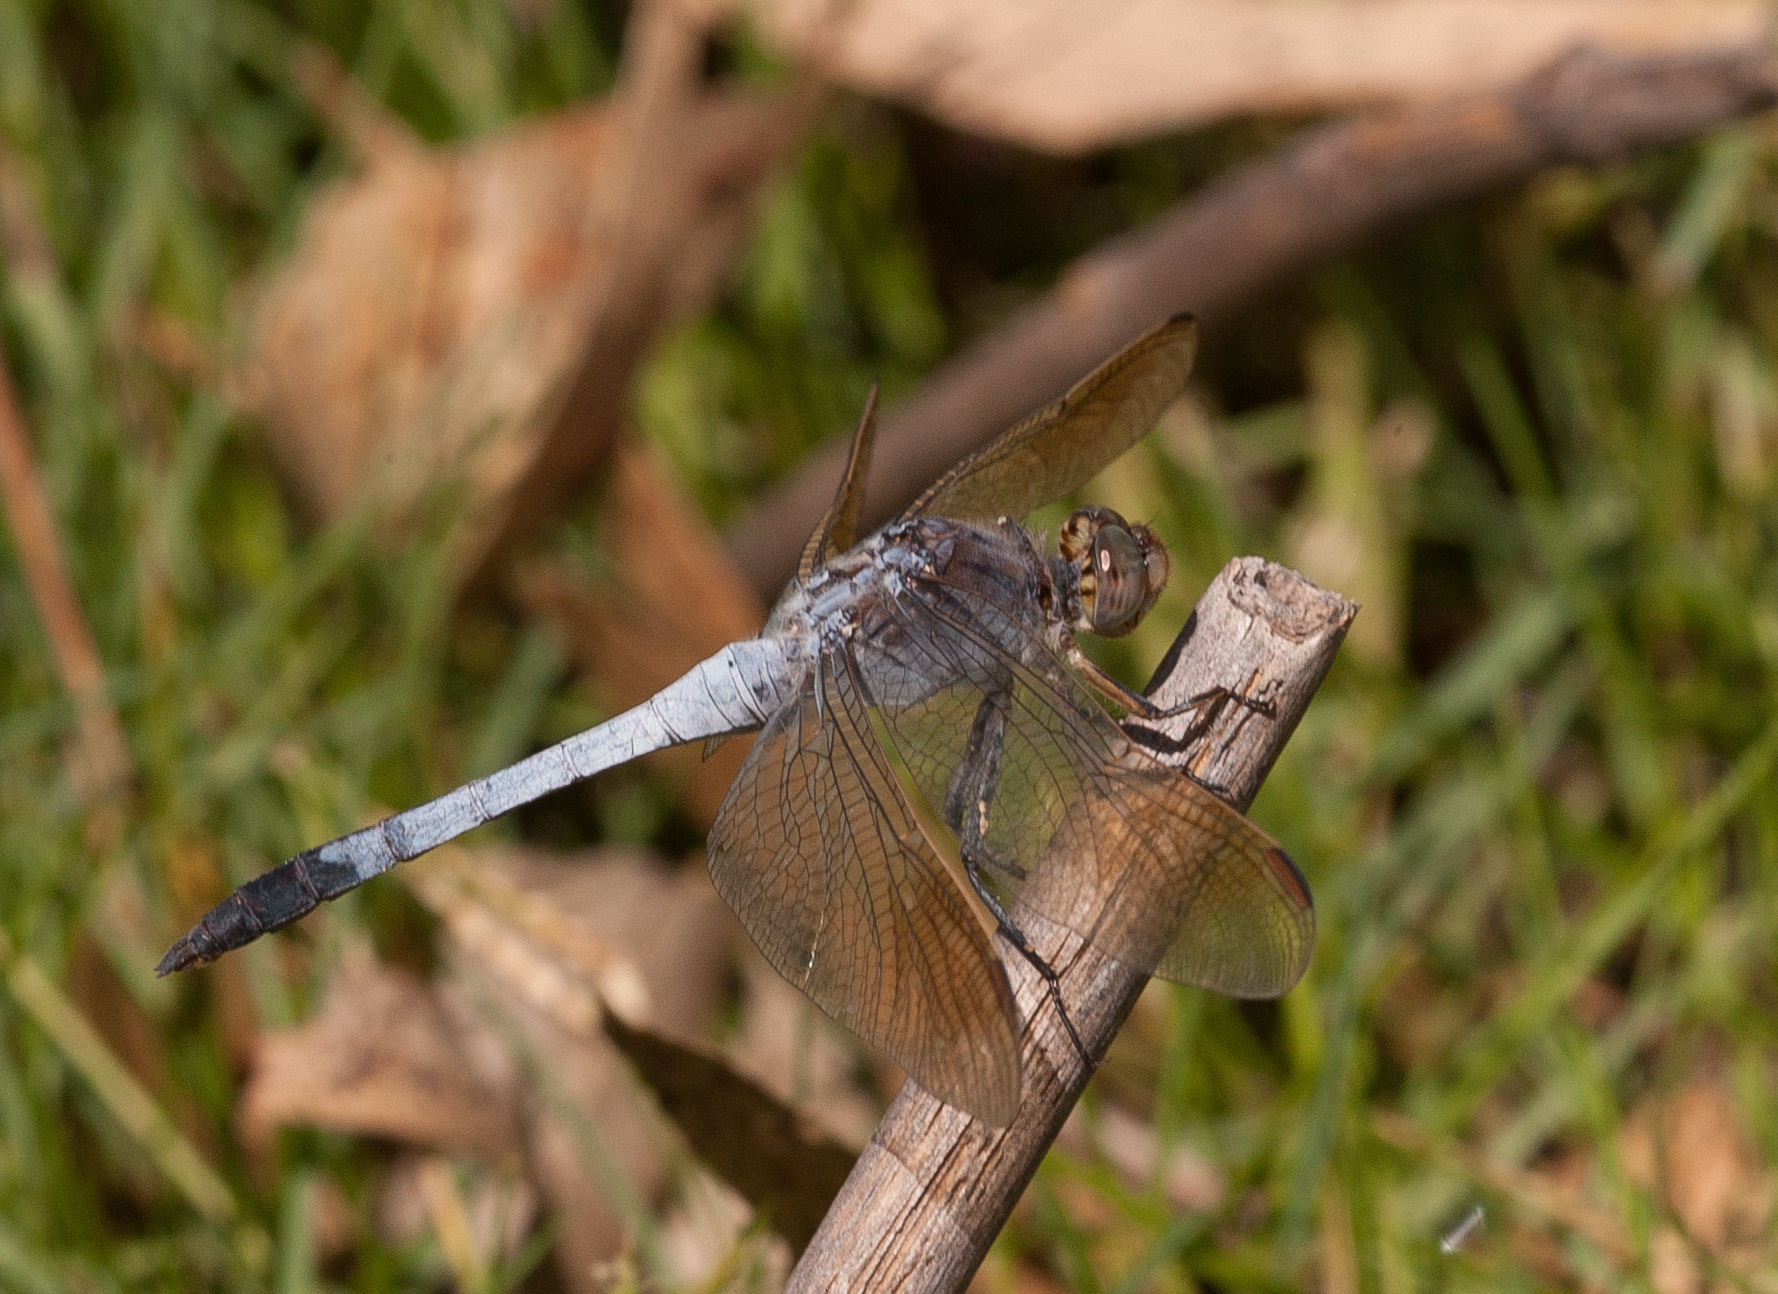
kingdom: Animalia
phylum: Arthropoda
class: Insecta
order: Odonata
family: Libellulidae
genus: Orthetrum
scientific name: Orthetrum caledonicum
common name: Blue skimmer
